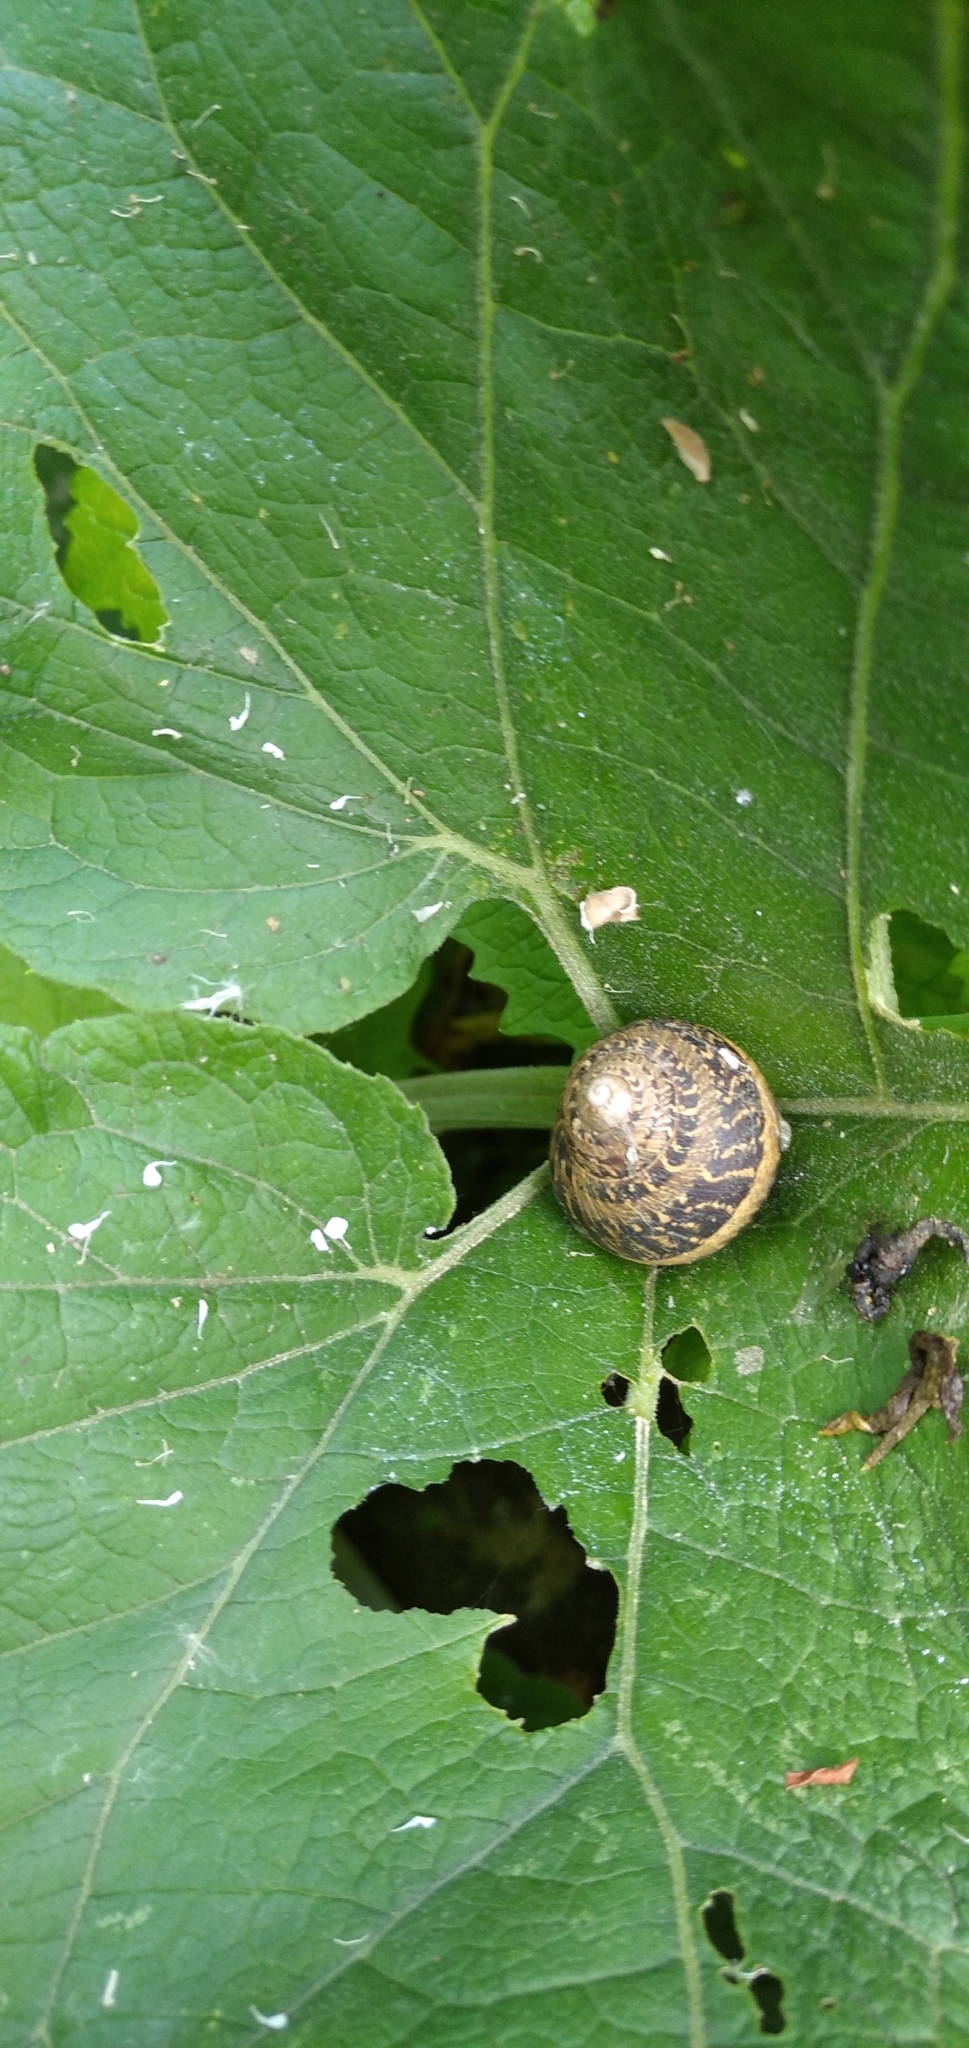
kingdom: Animalia
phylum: Mollusca
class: Gastropoda
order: Stylommatophora
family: Helicidae
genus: Cornu
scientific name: Cornu aspersum
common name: Brown garden snail
